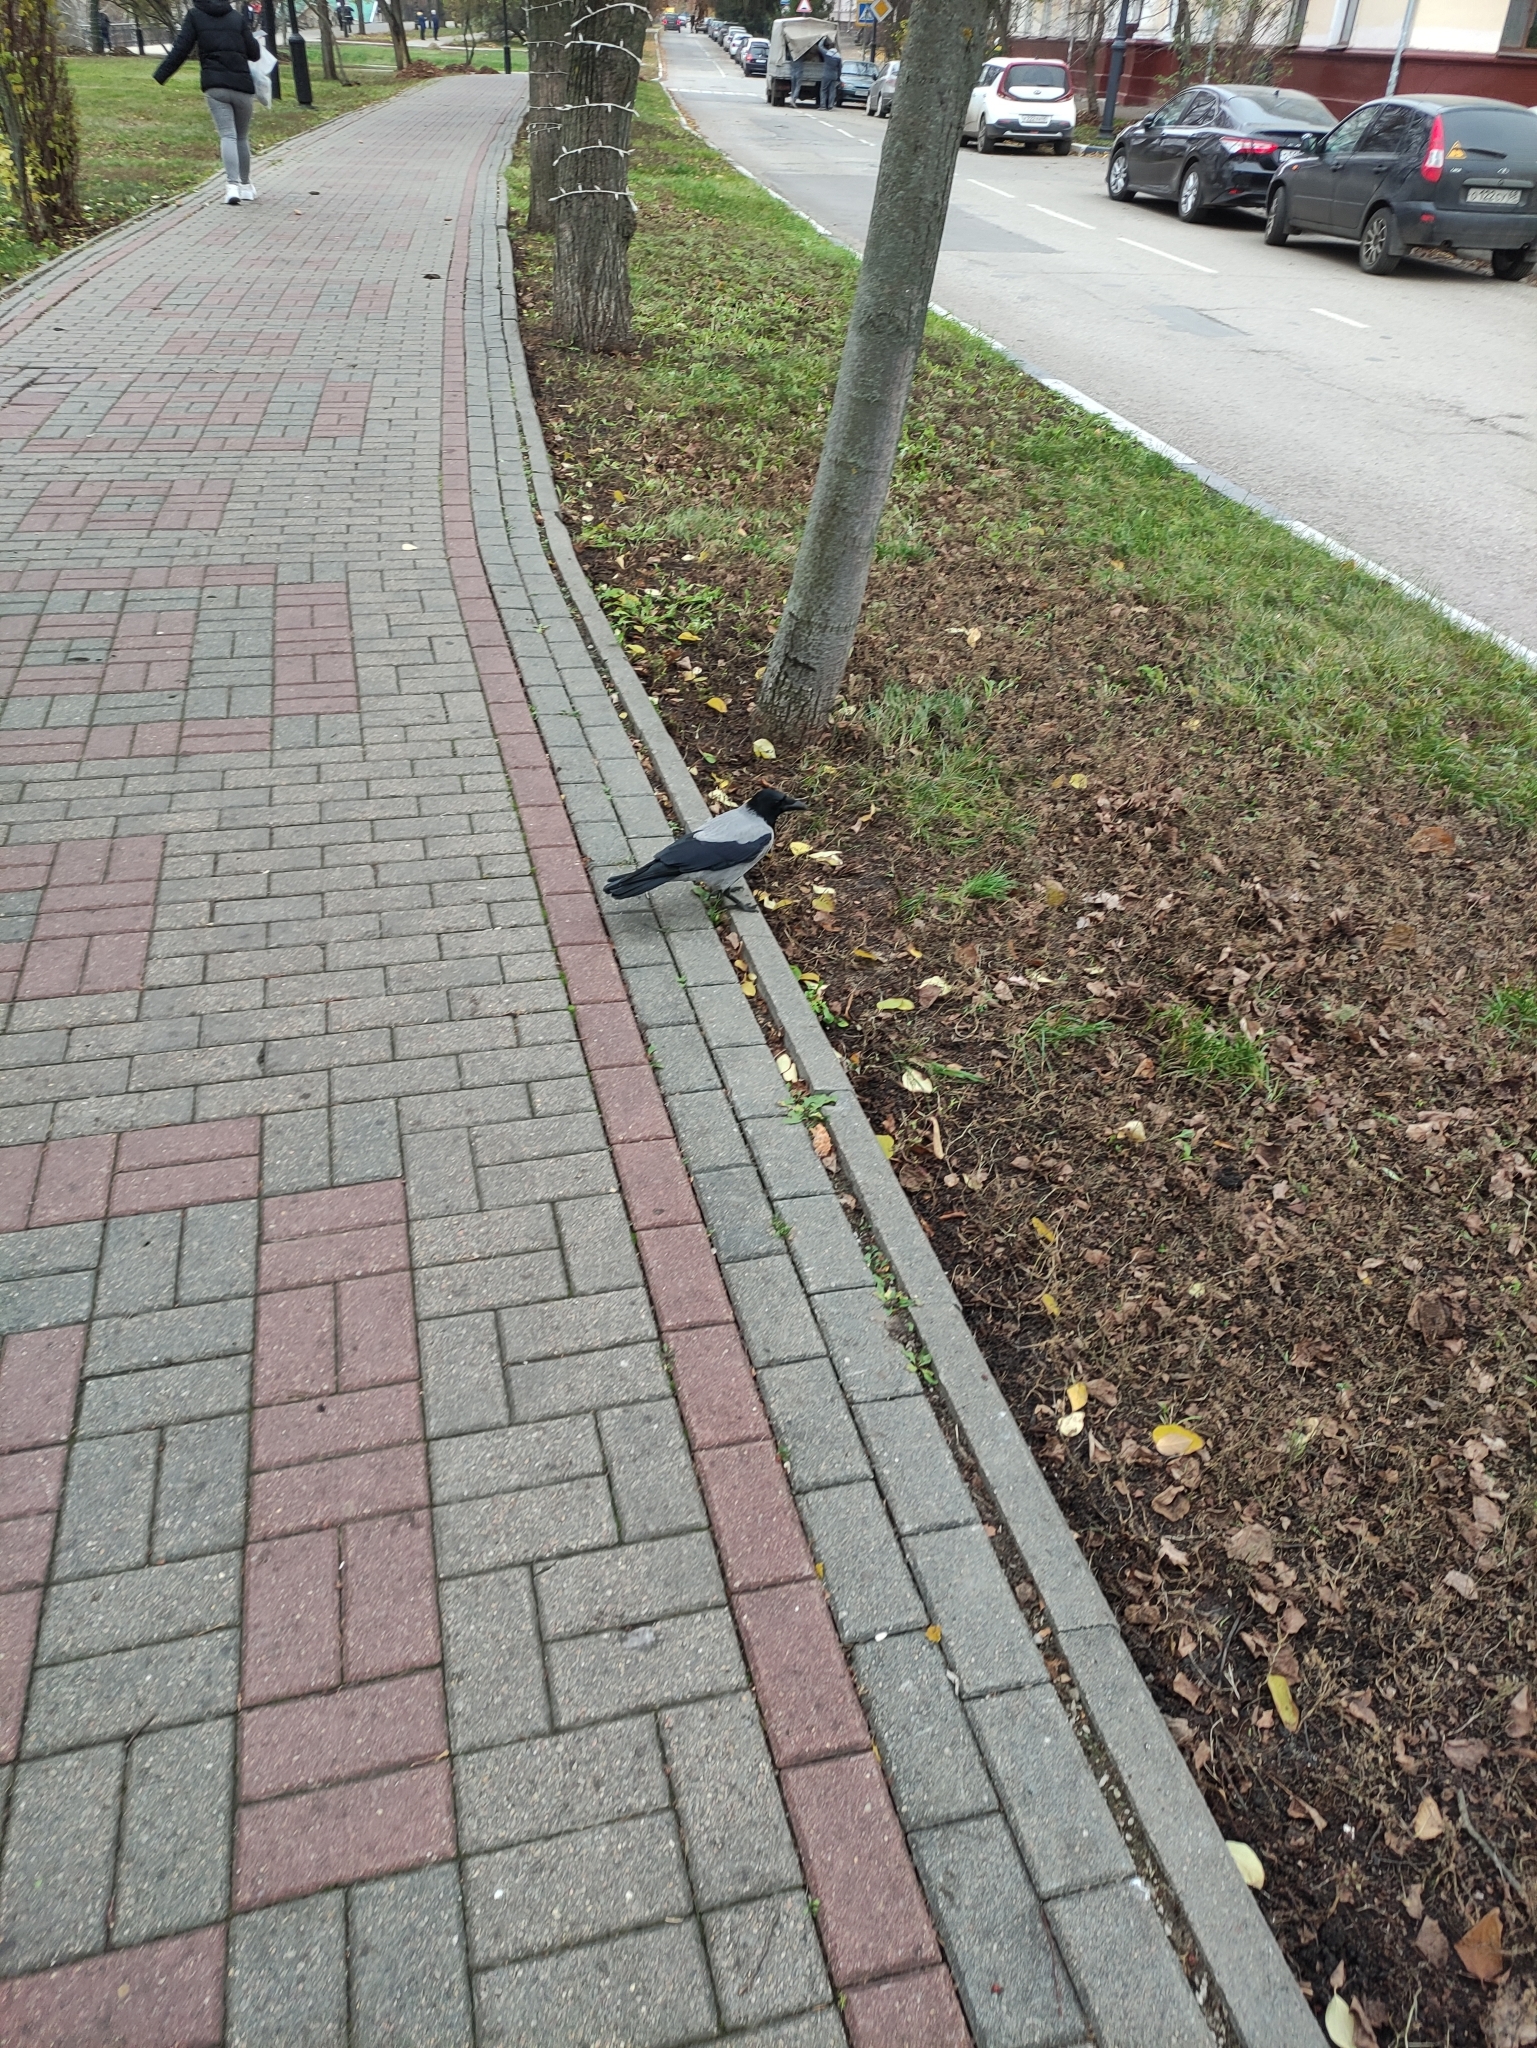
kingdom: Animalia
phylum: Chordata
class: Aves
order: Passeriformes
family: Corvidae
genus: Corvus
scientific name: Corvus cornix
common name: Hooded crow
